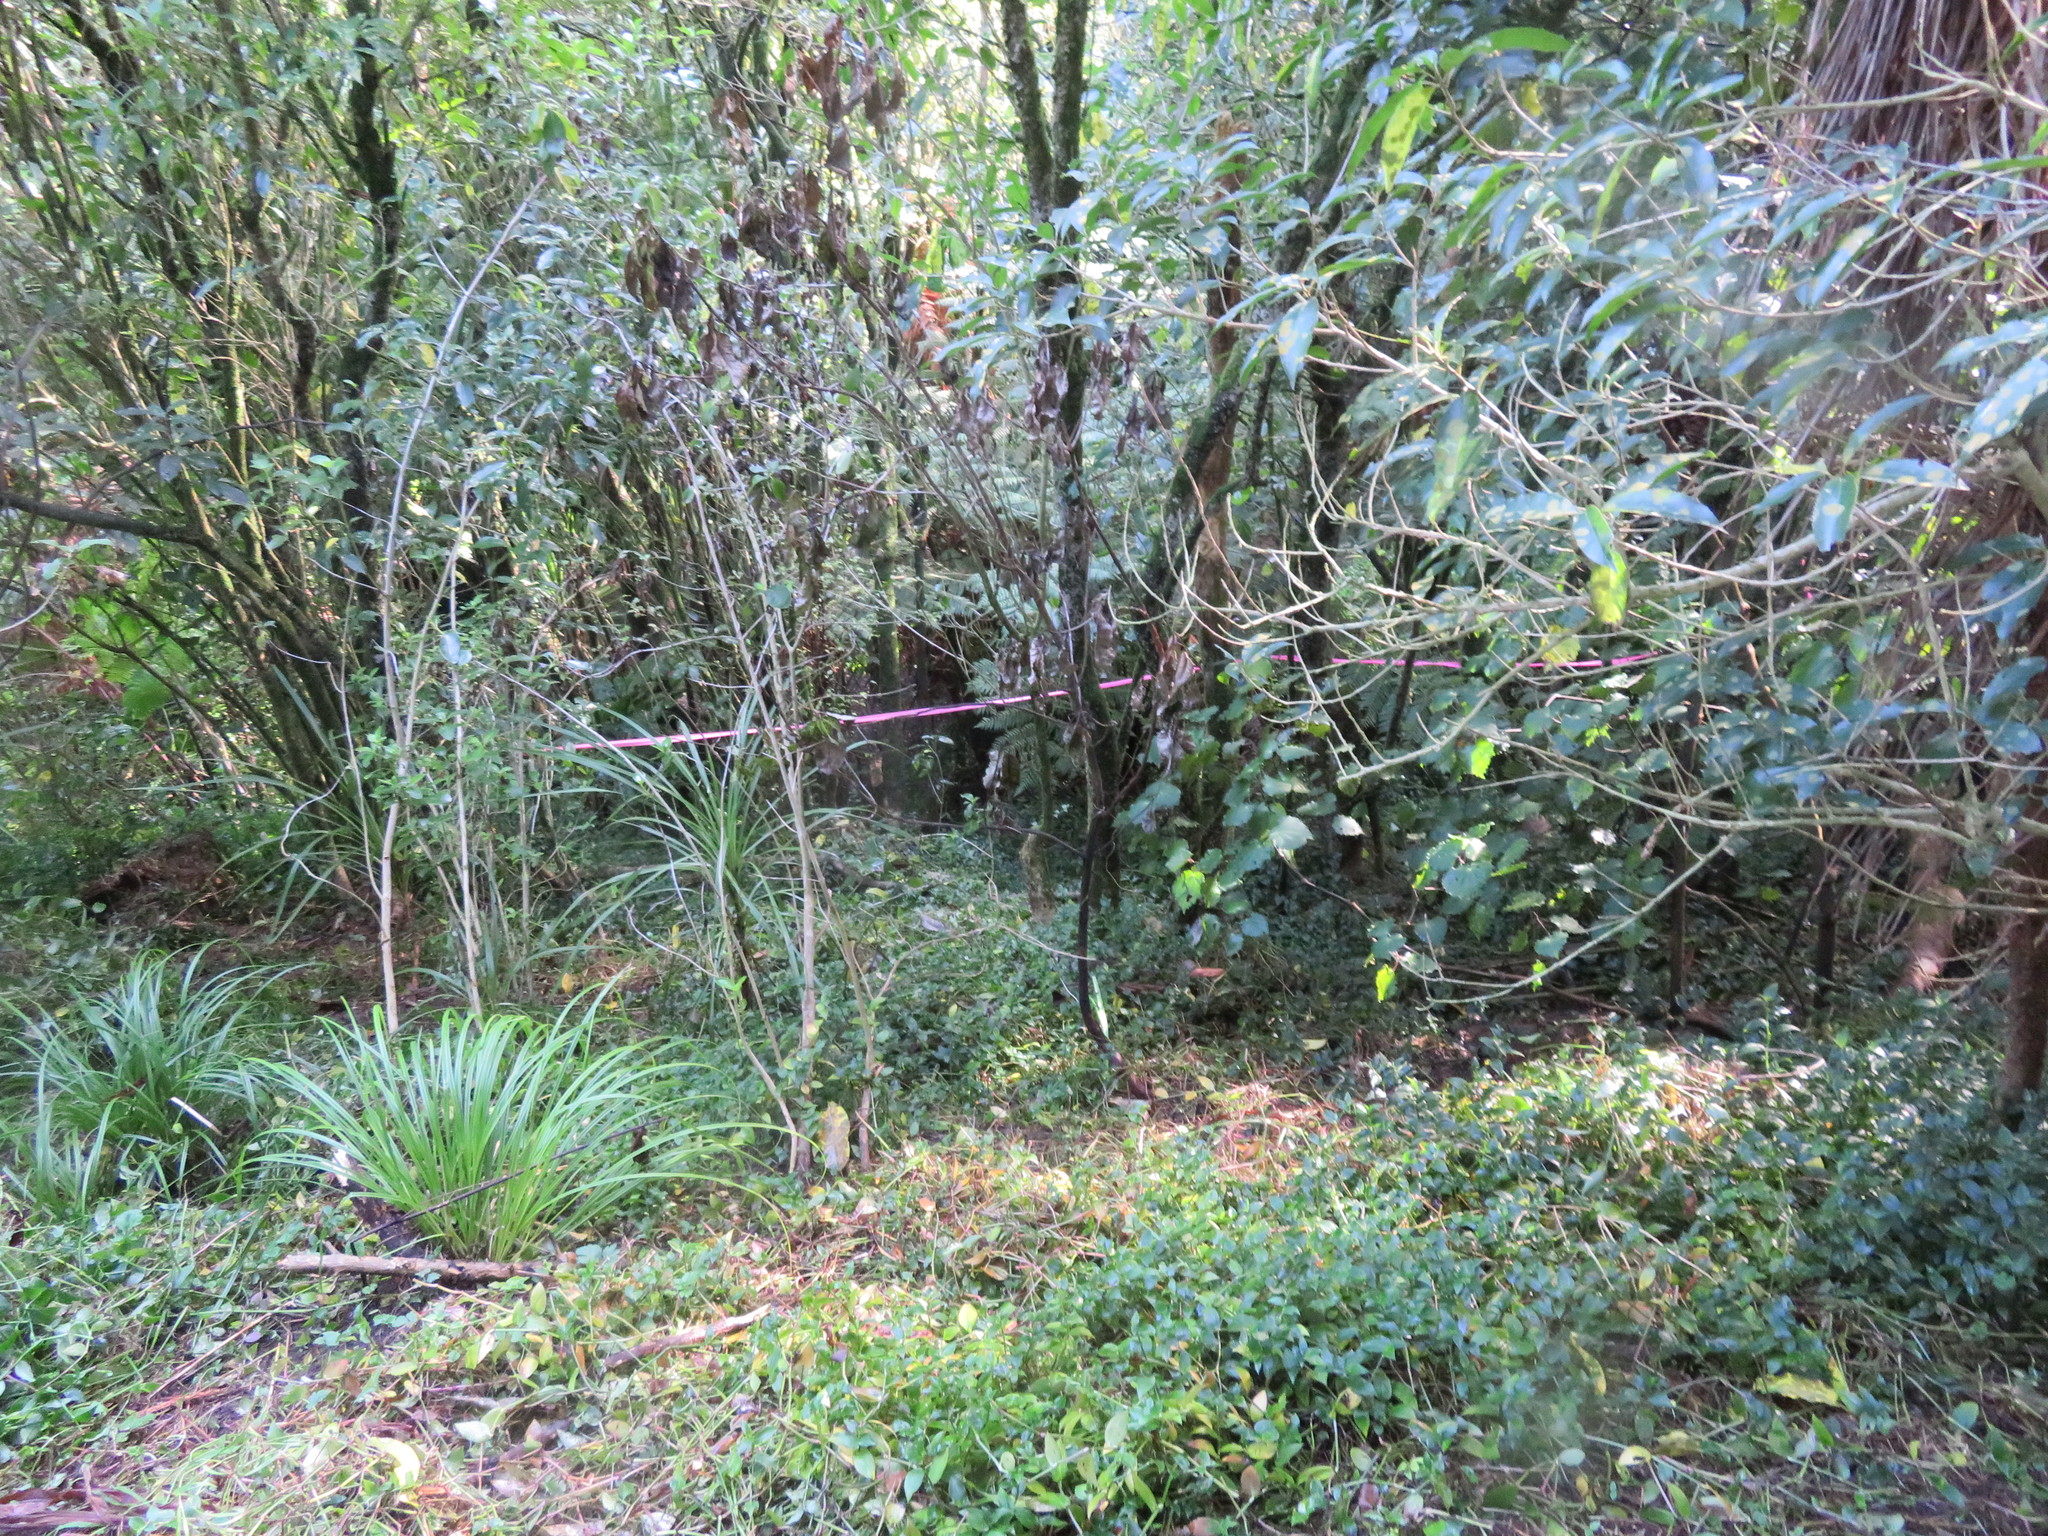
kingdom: Plantae
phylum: Tracheophyta
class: Magnoliopsida
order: Malpighiales
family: Violaceae
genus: Melicytus
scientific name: Melicytus ramiflorus
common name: Mahoe
